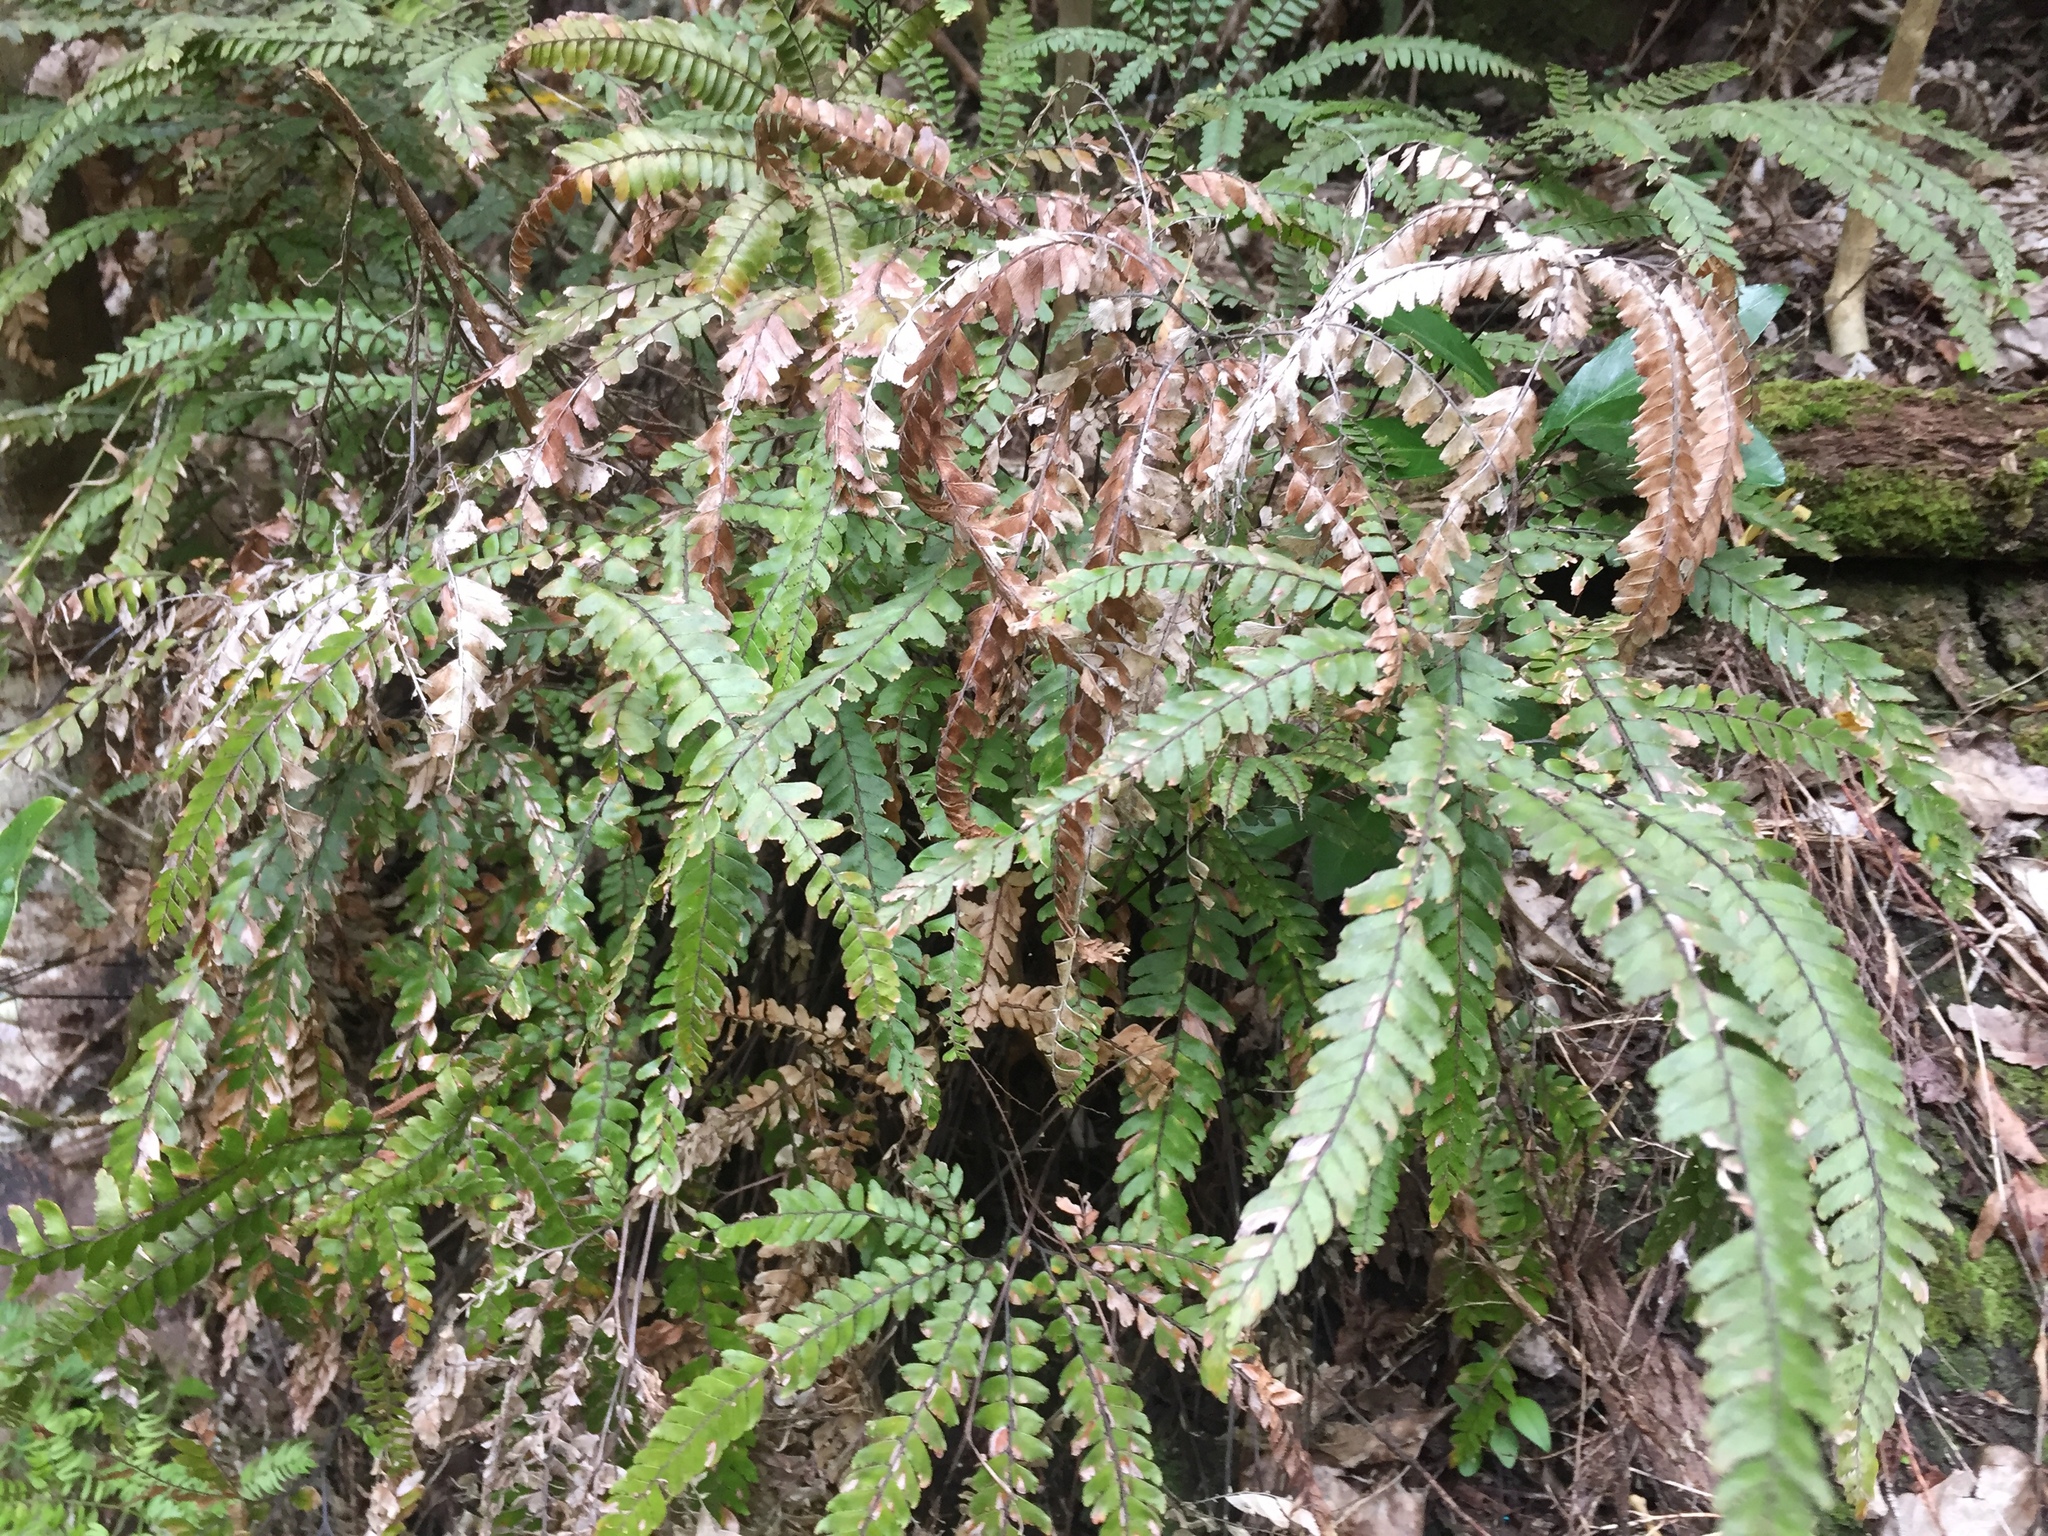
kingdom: Plantae
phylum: Tracheophyta
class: Polypodiopsida
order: Polypodiales
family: Pteridaceae
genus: Adiantum
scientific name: Adiantum hispidulum
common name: Rough maidenhair
